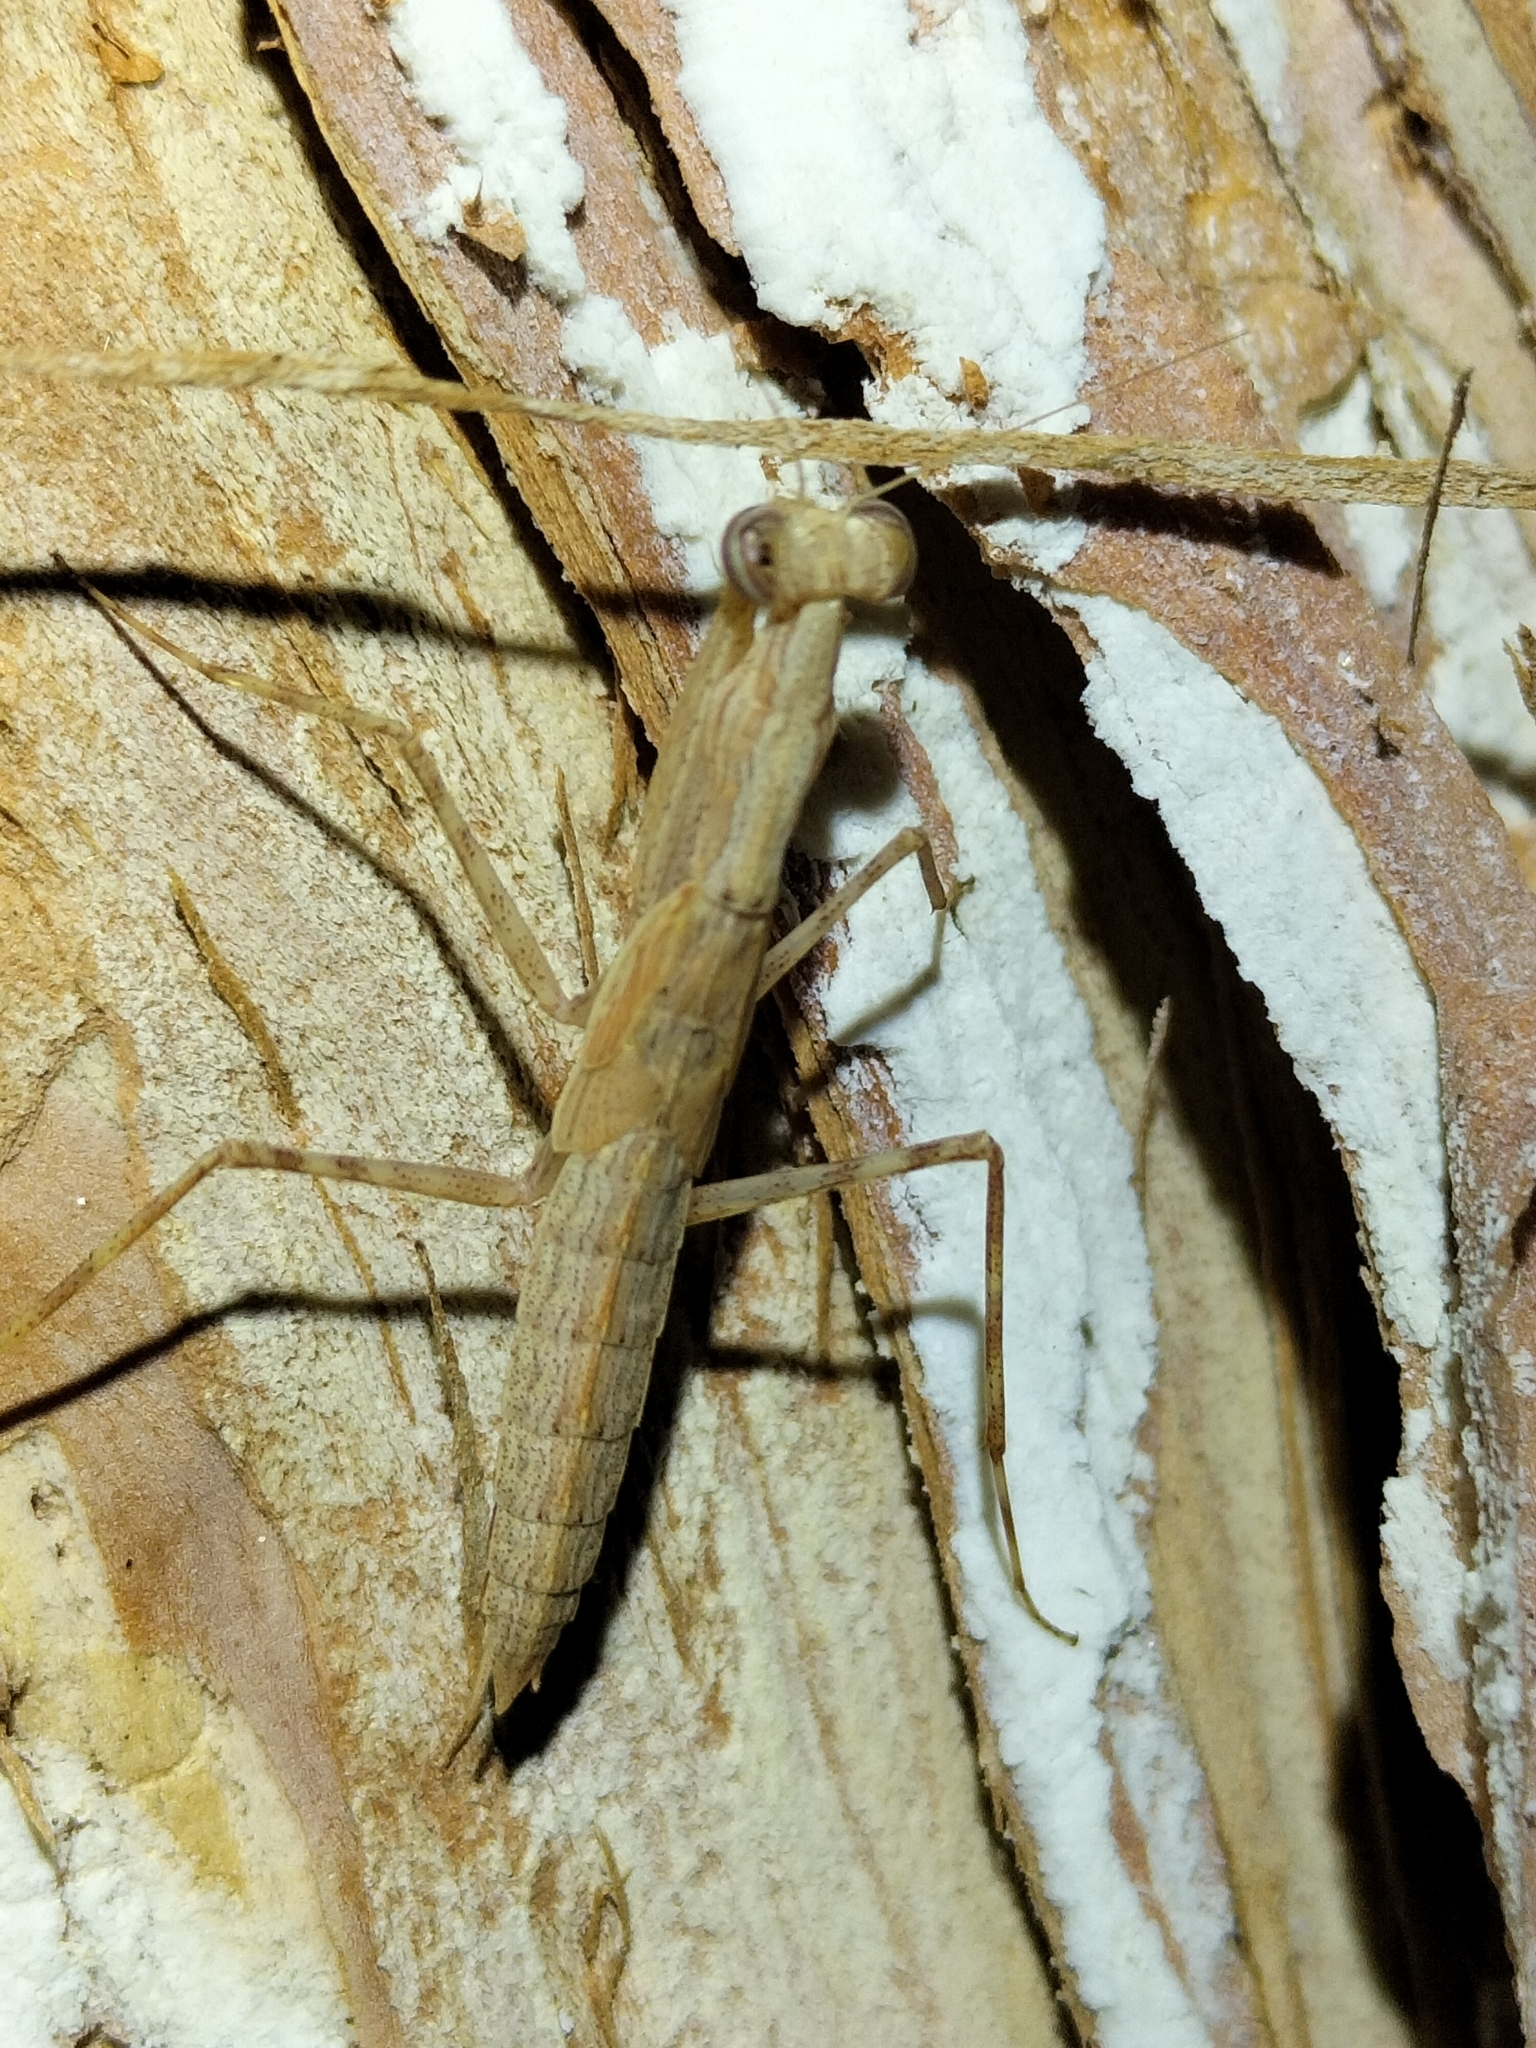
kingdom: Animalia
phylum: Arthropoda
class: Insecta
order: Mantodea
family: Nanomantidae
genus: Ima
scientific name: Ima fusca
